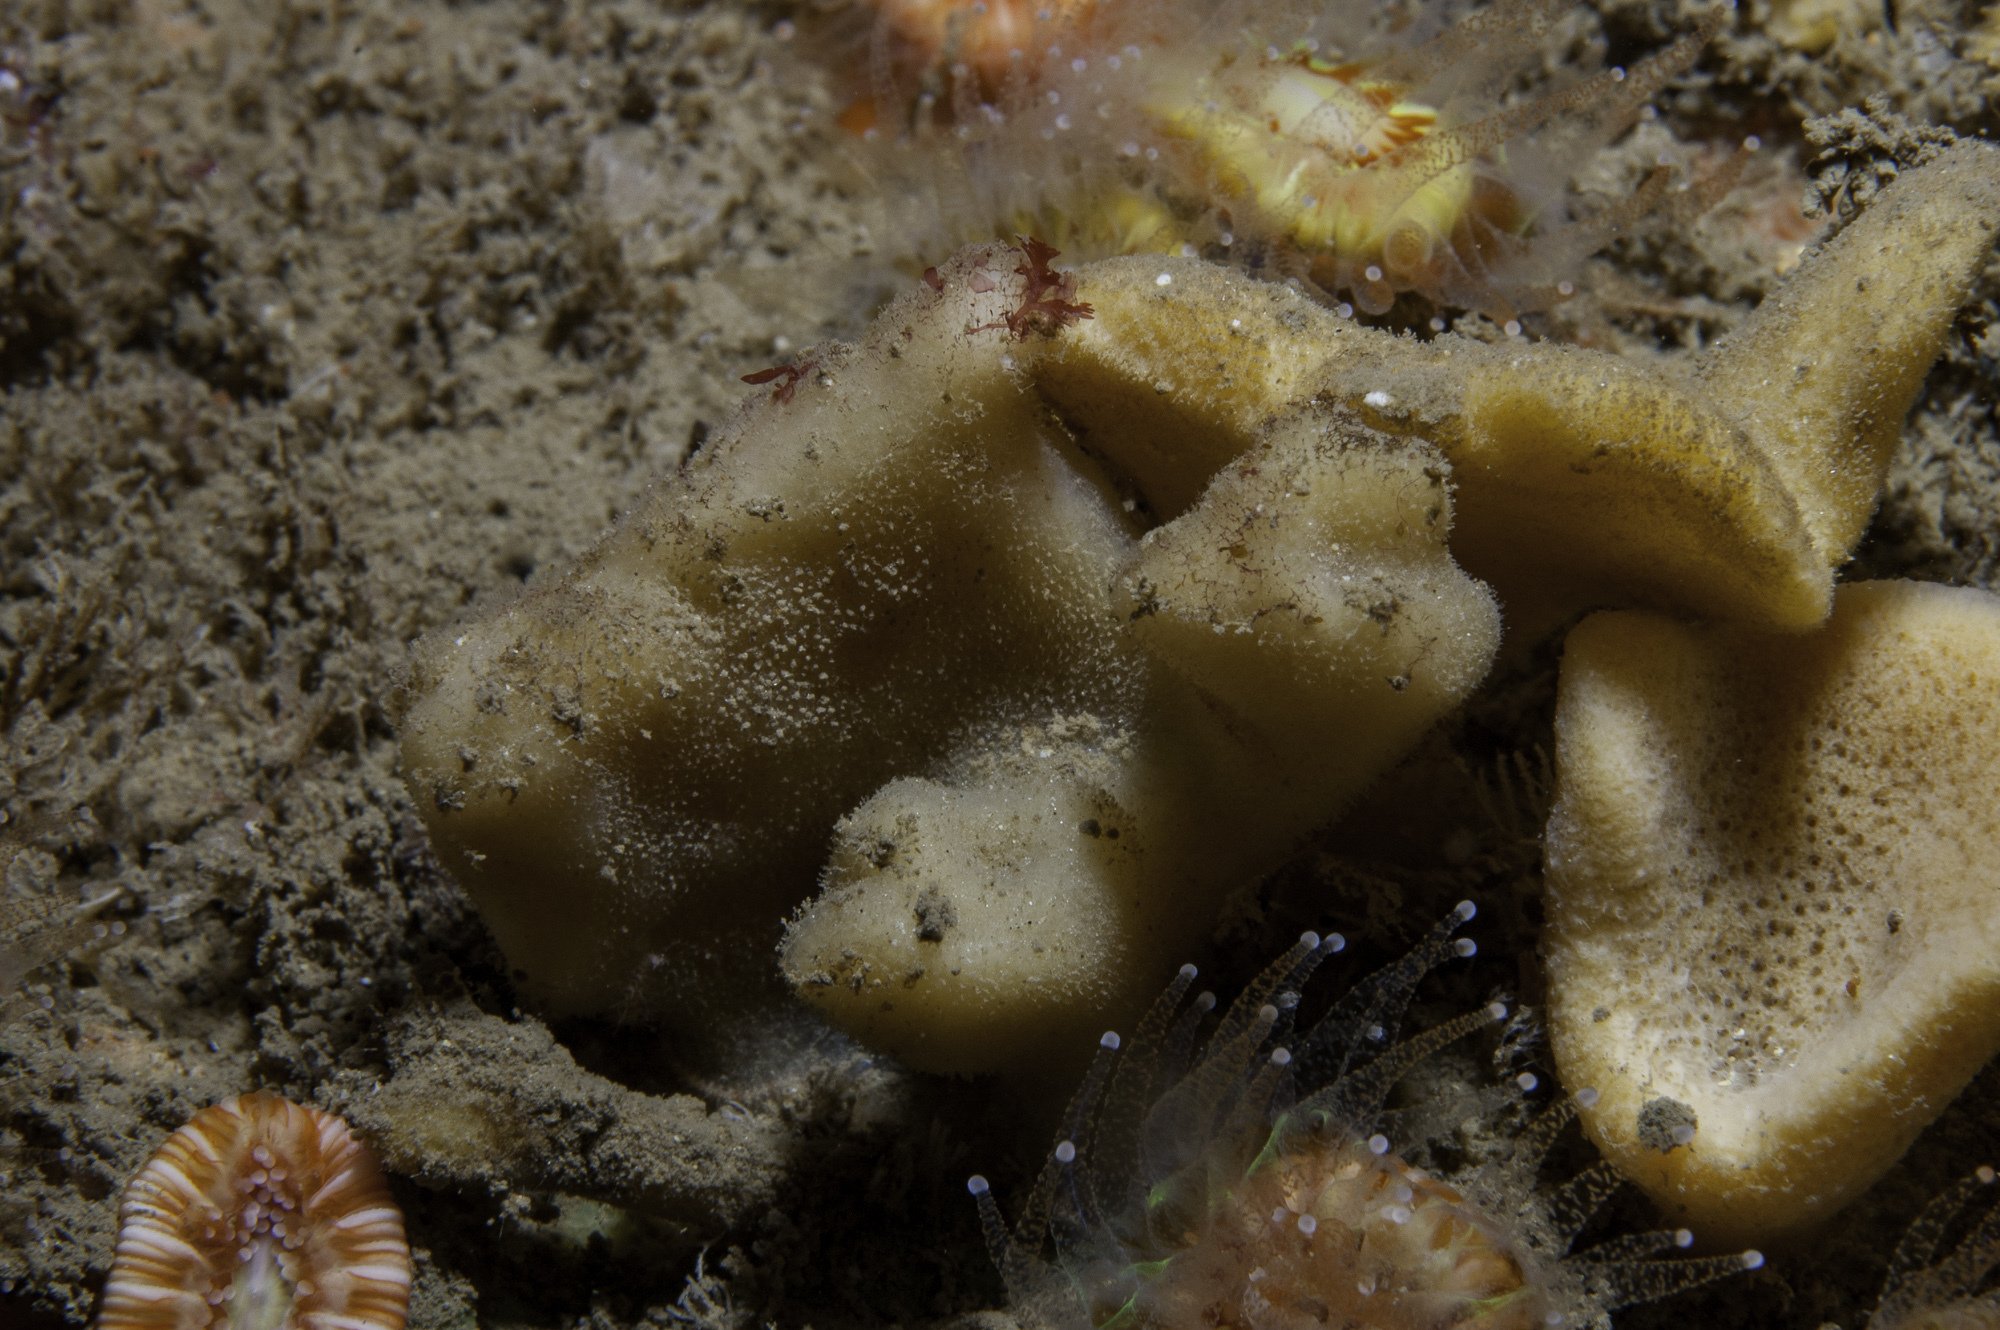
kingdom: Animalia
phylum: Porifera
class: Demospongiae
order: Dendroceratida
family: Dictyodendrillidae
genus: Spongionella
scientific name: Spongionella pulchella
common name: Gorgeous horny sponge
